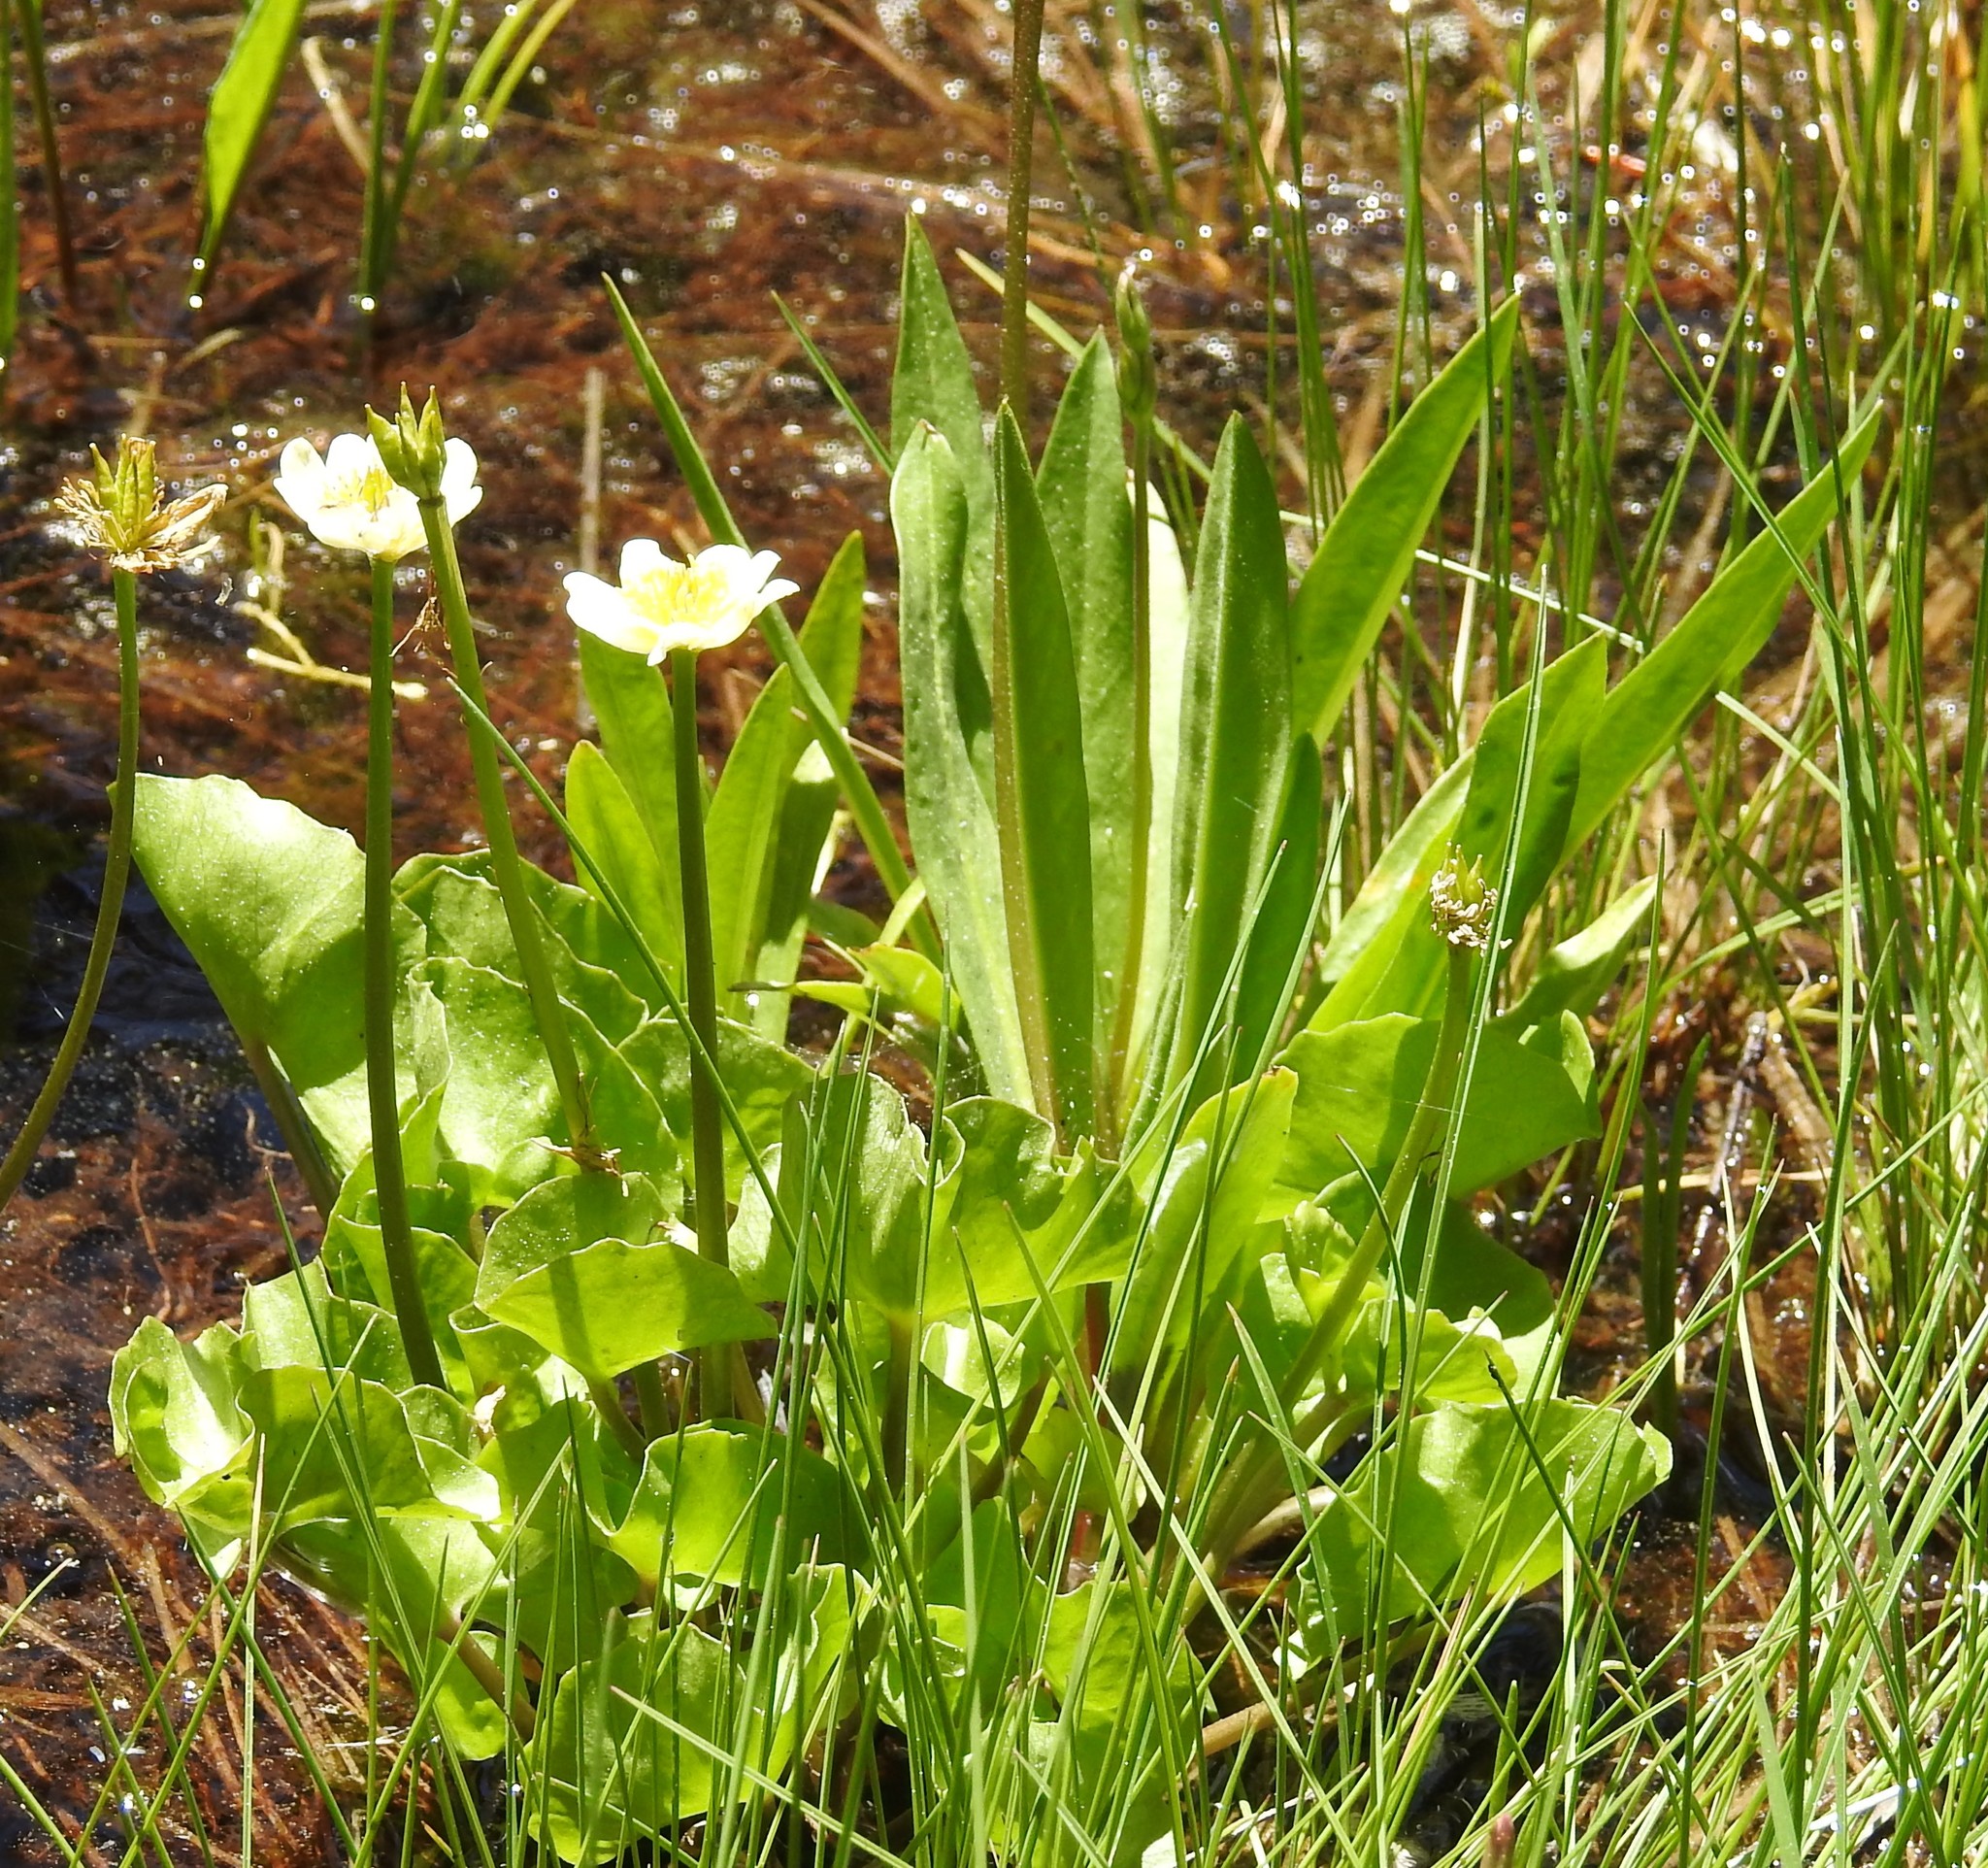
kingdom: Plantae
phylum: Tracheophyta
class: Magnoliopsida
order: Ranunculales
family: Ranunculaceae
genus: Caltha
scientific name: Caltha leptosepala
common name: Elkslip
